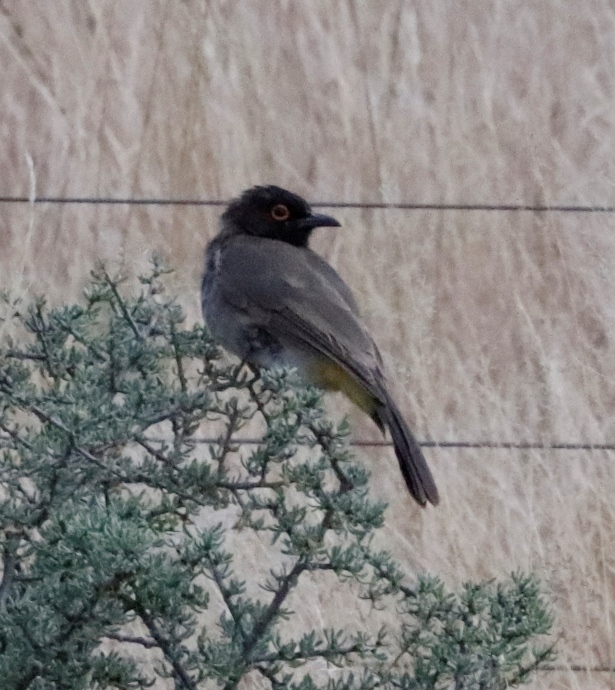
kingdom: Animalia
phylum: Chordata
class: Aves
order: Passeriformes
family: Pycnonotidae
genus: Pycnonotus
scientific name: Pycnonotus nigricans
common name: African red-eyed bulbul
